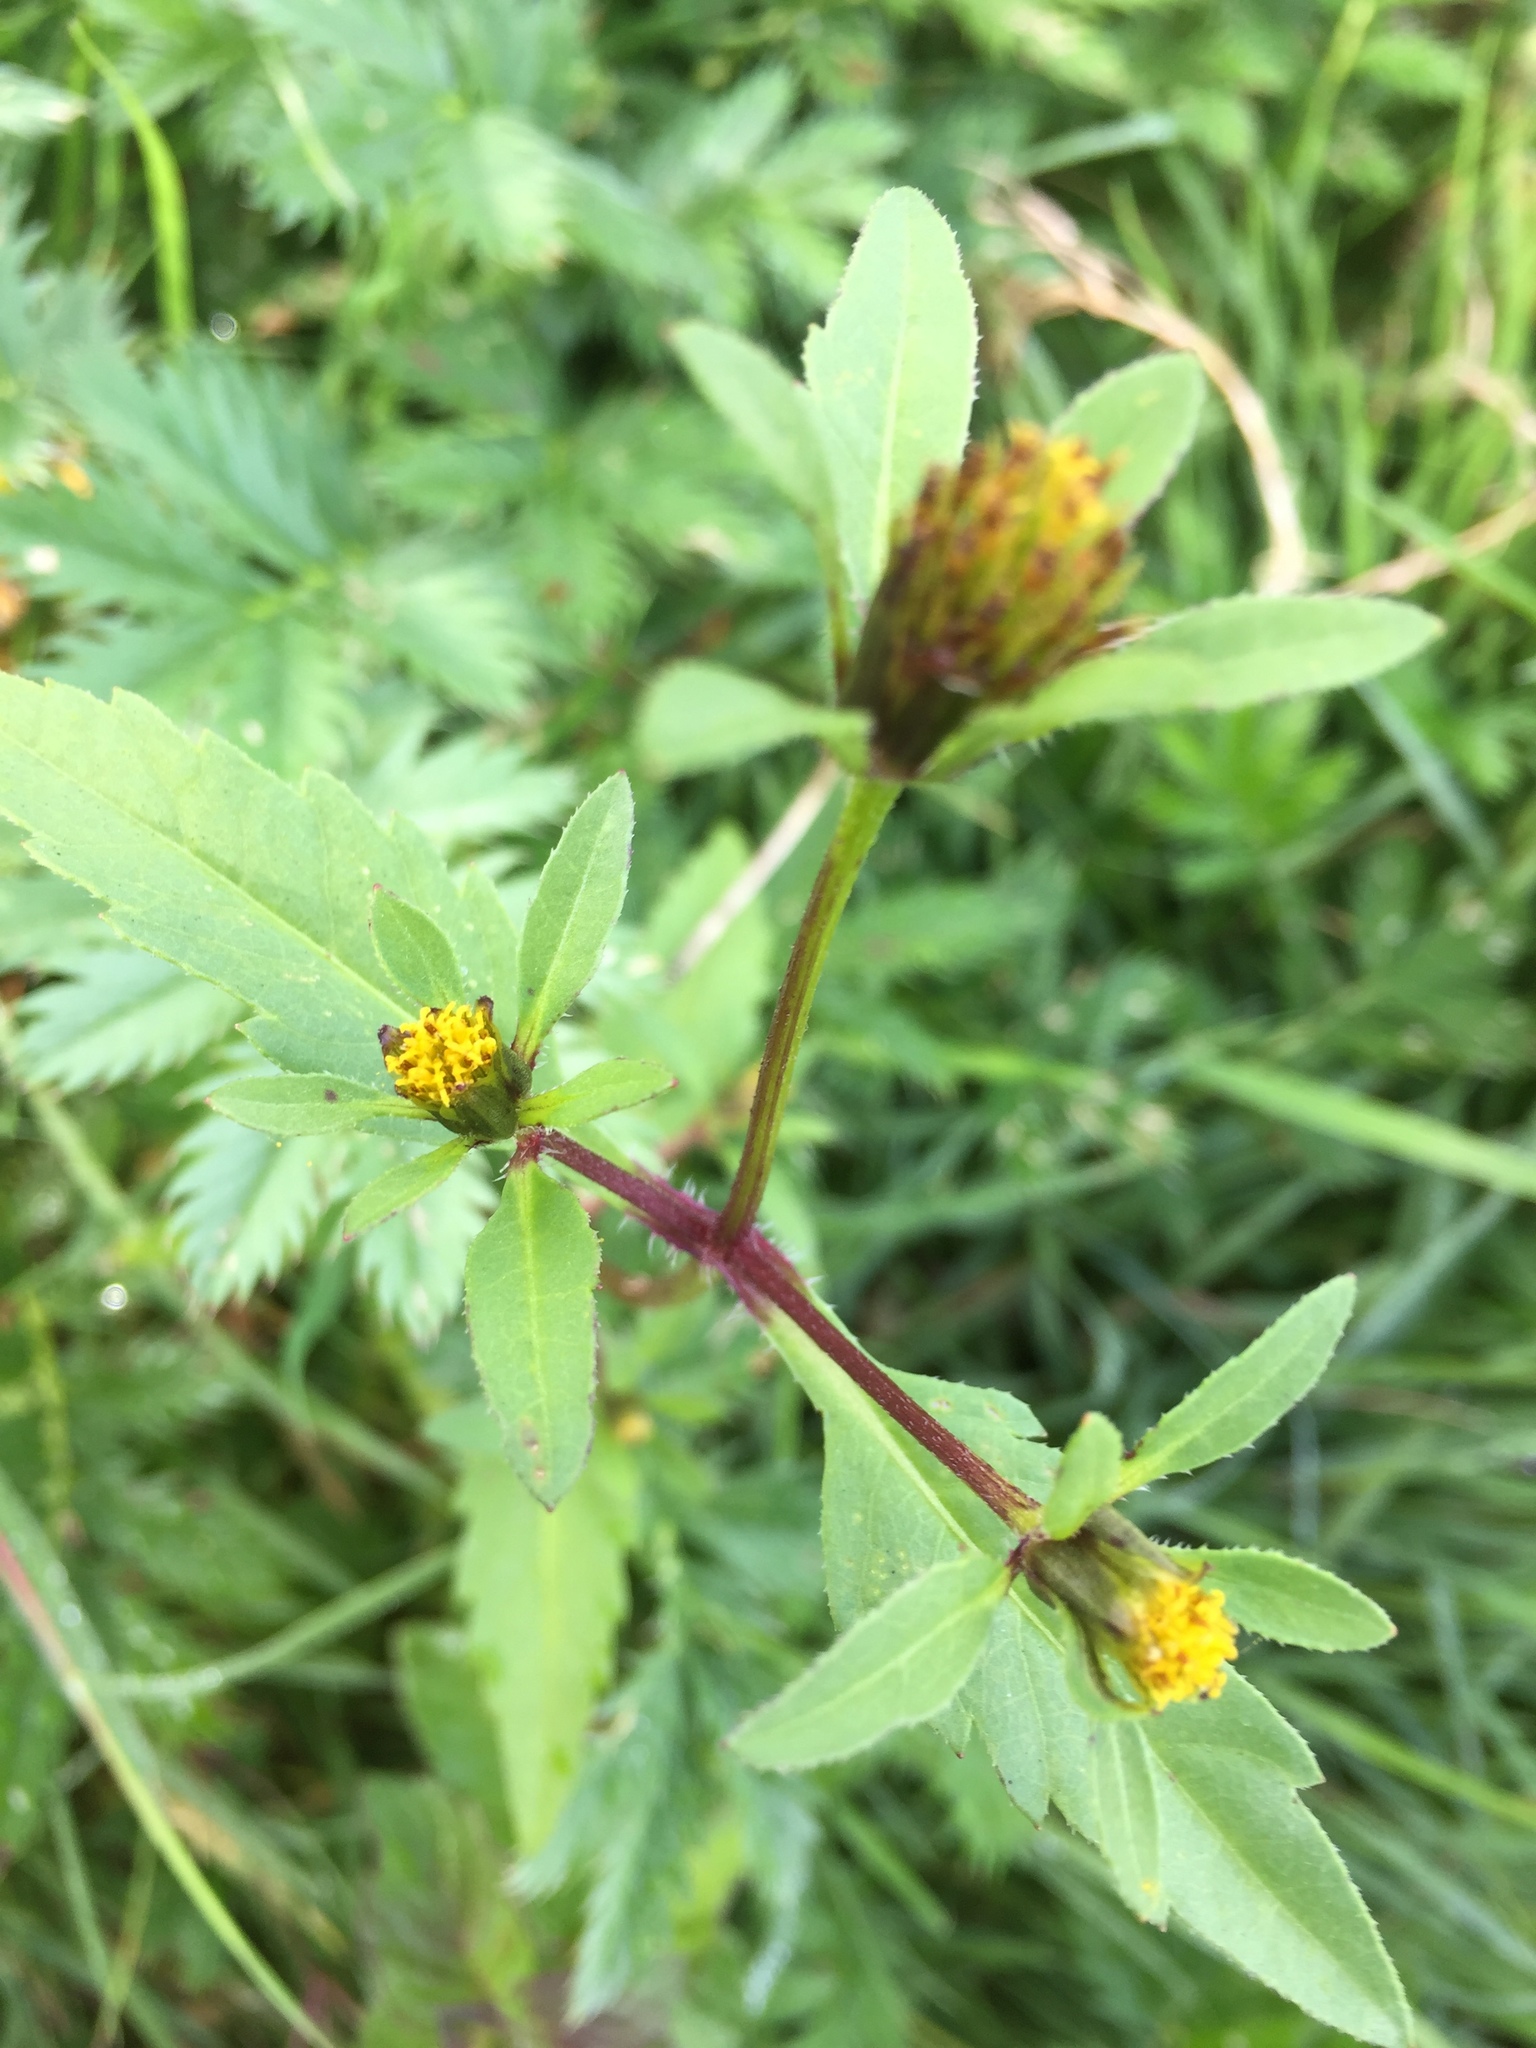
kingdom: Plantae
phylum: Tracheophyta
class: Magnoliopsida
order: Asterales
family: Asteraceae
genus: Bidens
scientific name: Bidens tripartita
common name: Trifid bur-marigold
